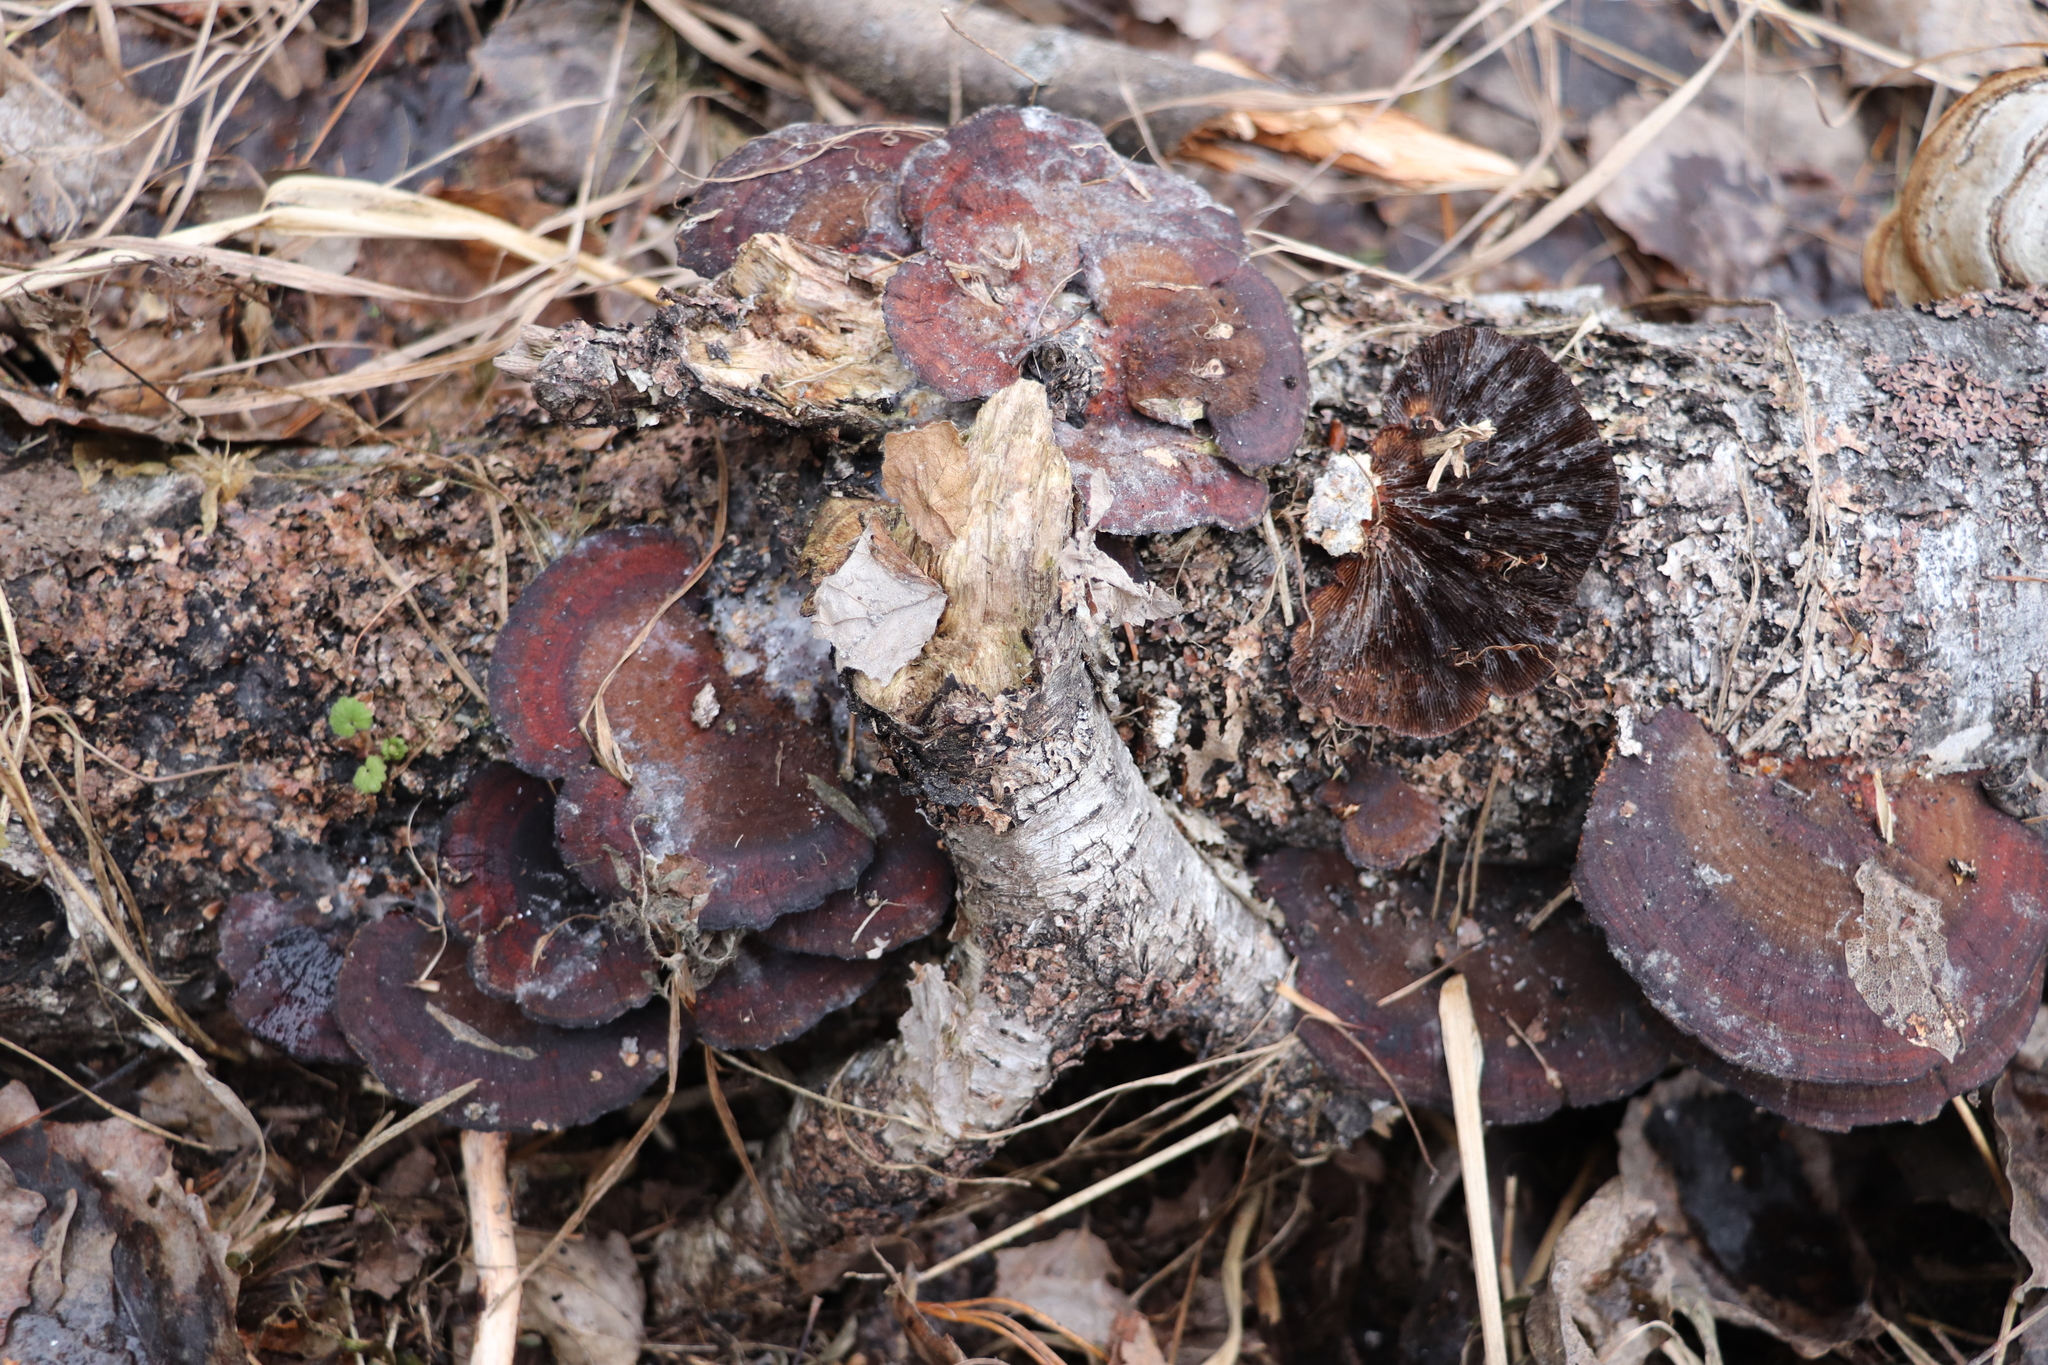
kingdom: Fungi
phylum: Basidiomycota
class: Agaricomycetes
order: Polyporales
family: Polyporaceae
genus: Daedaleopsis
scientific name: Daedaleopsis tricolor
